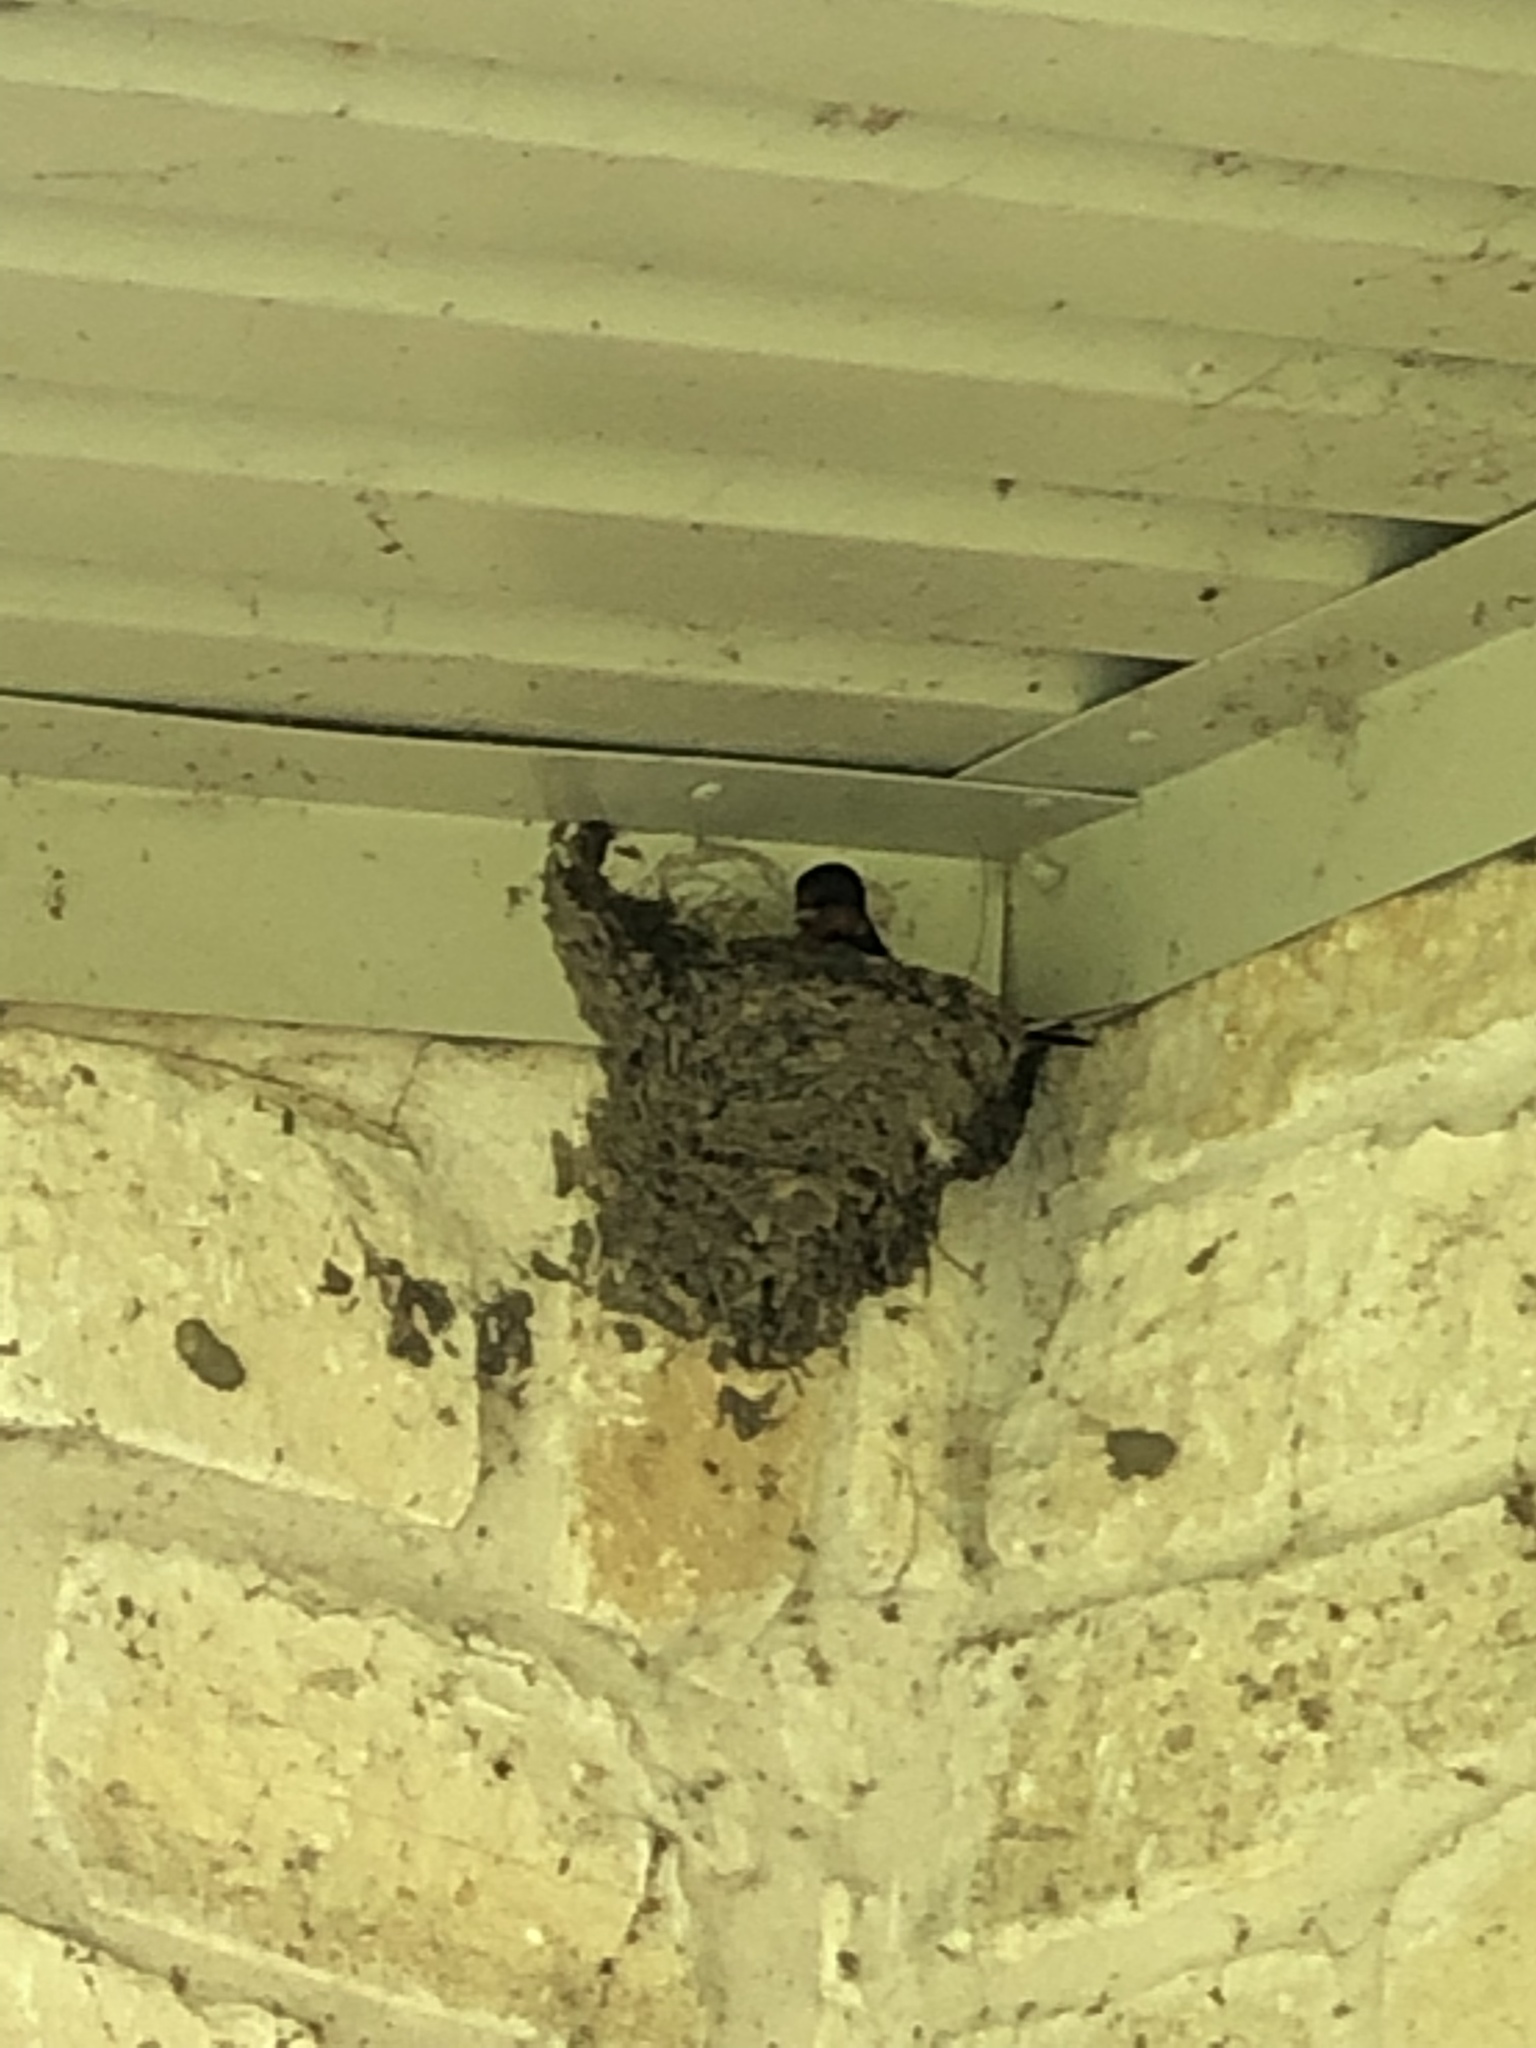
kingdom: Animalia
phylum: Chordata
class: Aves
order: Passeriformes
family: Hirundinidae
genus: Hirundo
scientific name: Hirundo rustica
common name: Barn swallow
